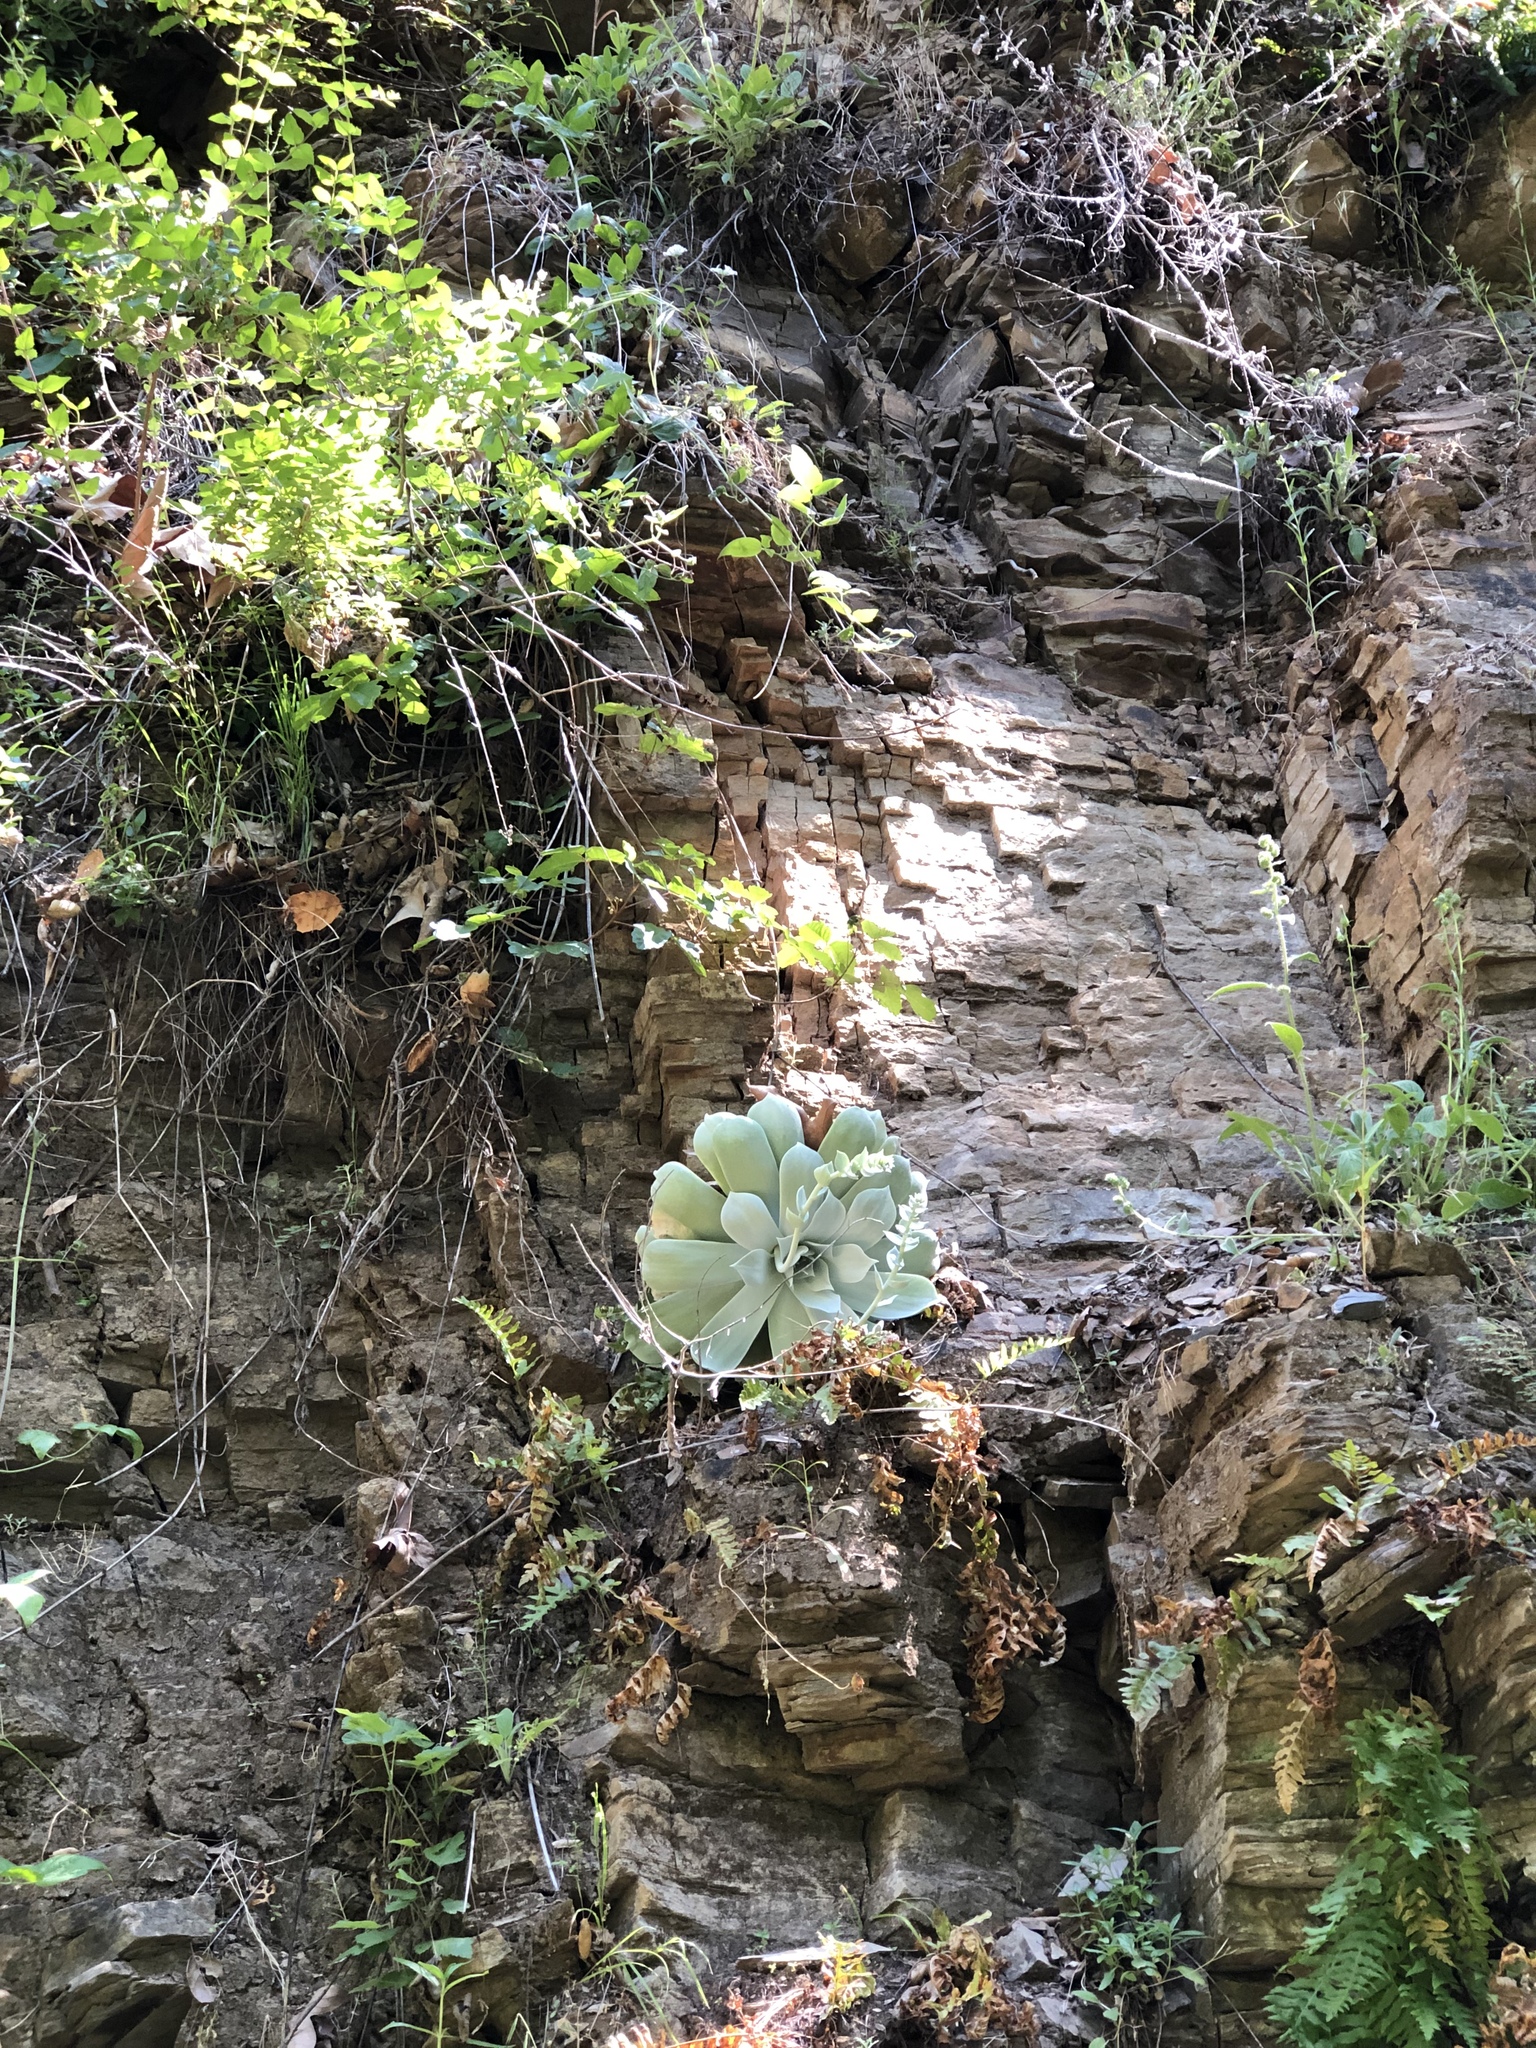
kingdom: Plantae
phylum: Tracheophyta
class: Magnoliopsida
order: Saxifragales
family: Crassulaceae
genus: Dudleya
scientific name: Dudleya pulverulenta
